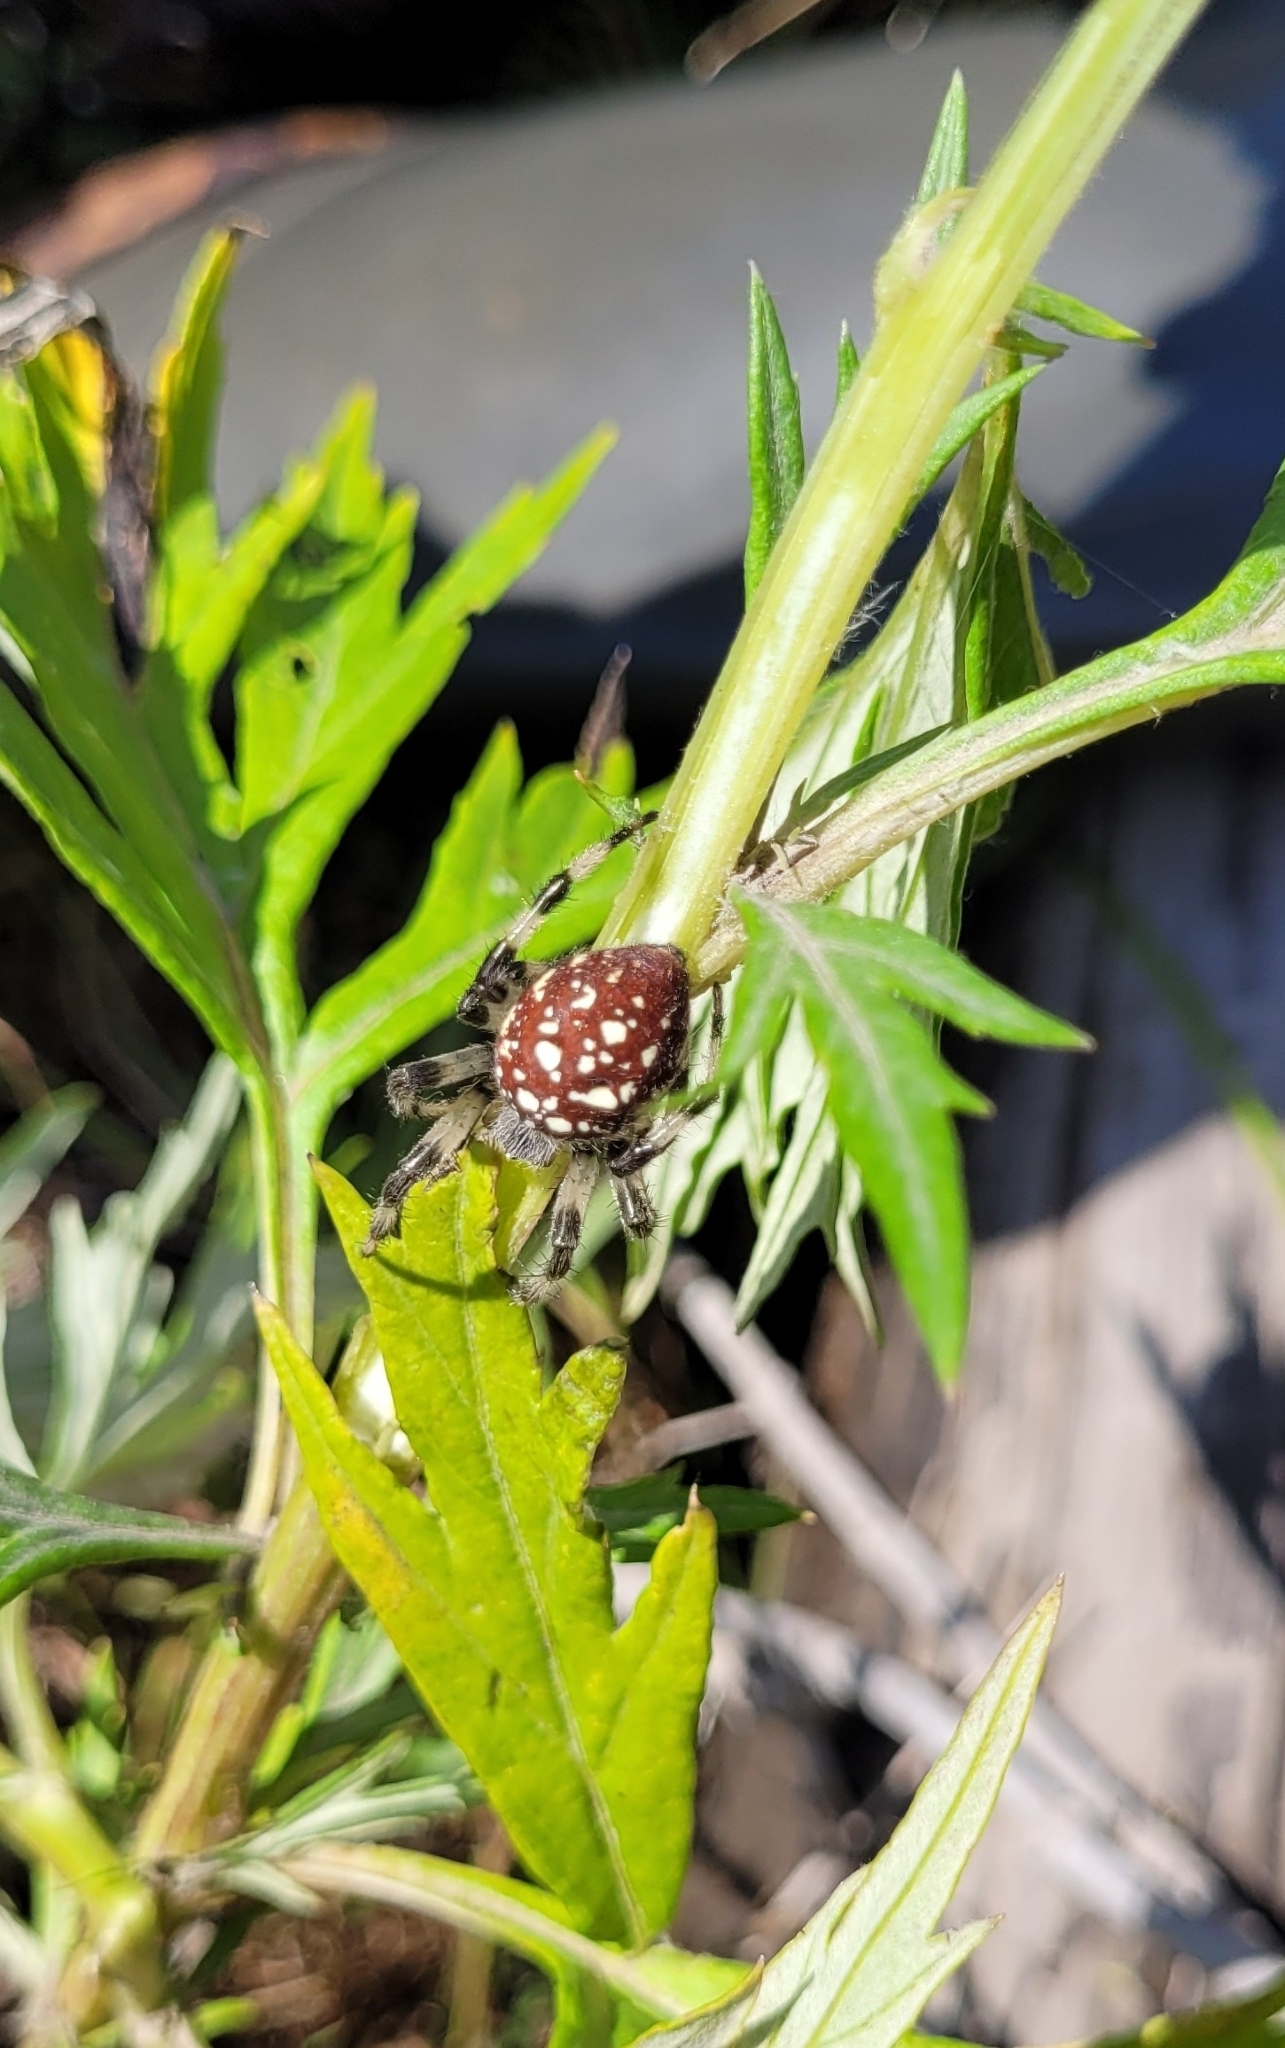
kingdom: Animalia
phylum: Arthropoda
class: Arachnida
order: Araneae
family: Araneidae
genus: Araneus
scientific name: Araneus pinguis
